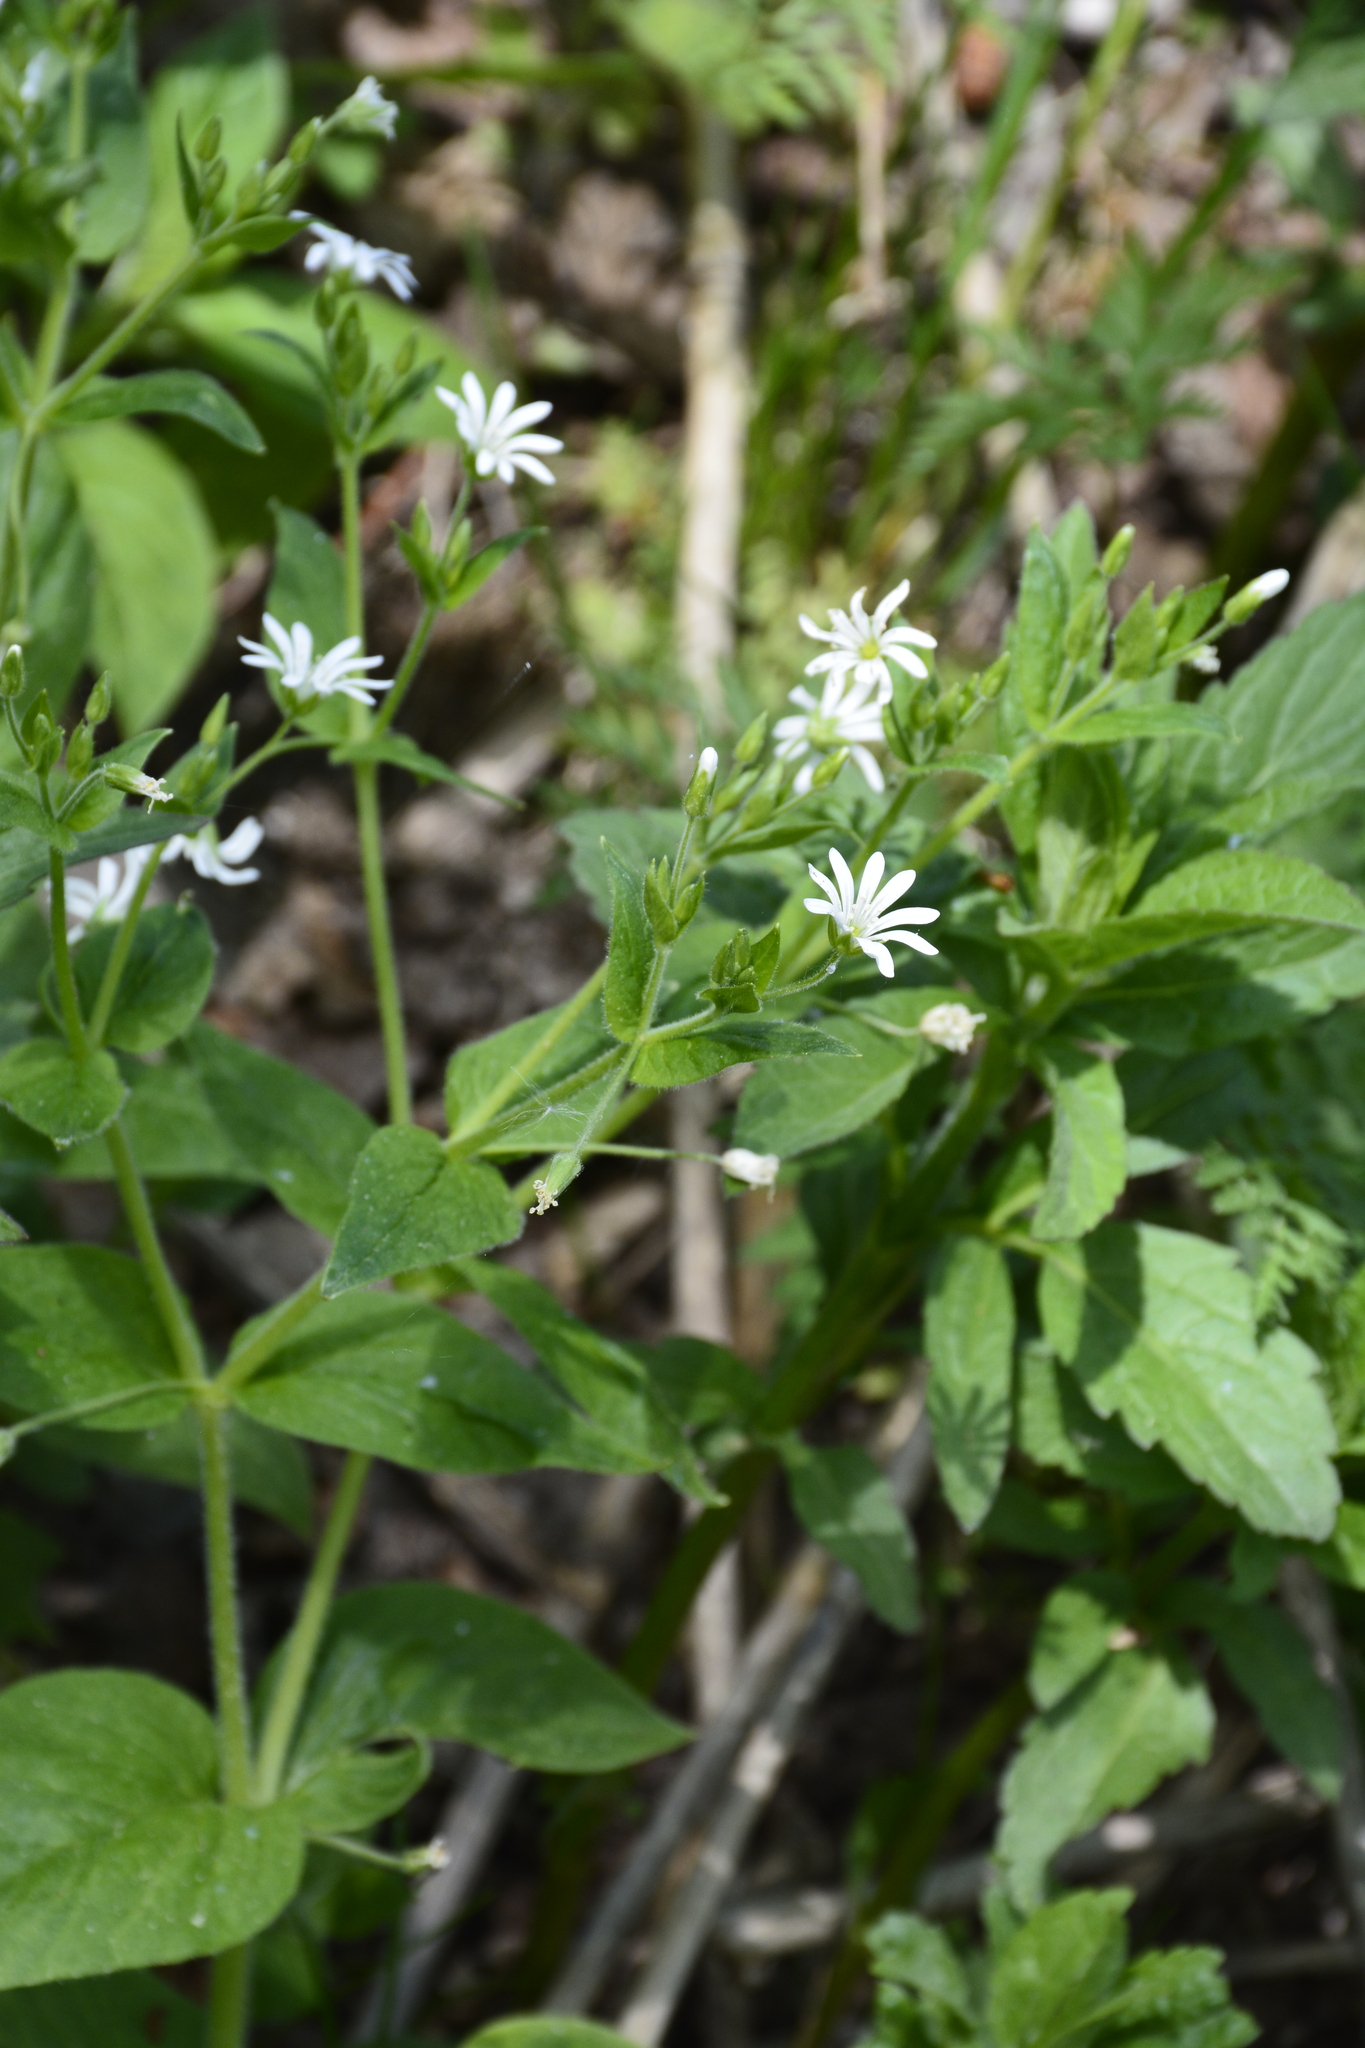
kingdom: Plantae
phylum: Tracheophyta
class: Magnoliopsida
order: Caryophyllales
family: Caryophyllaceae
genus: Stellaria
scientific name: Stellaria nemorum
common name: Wood stitchwort
